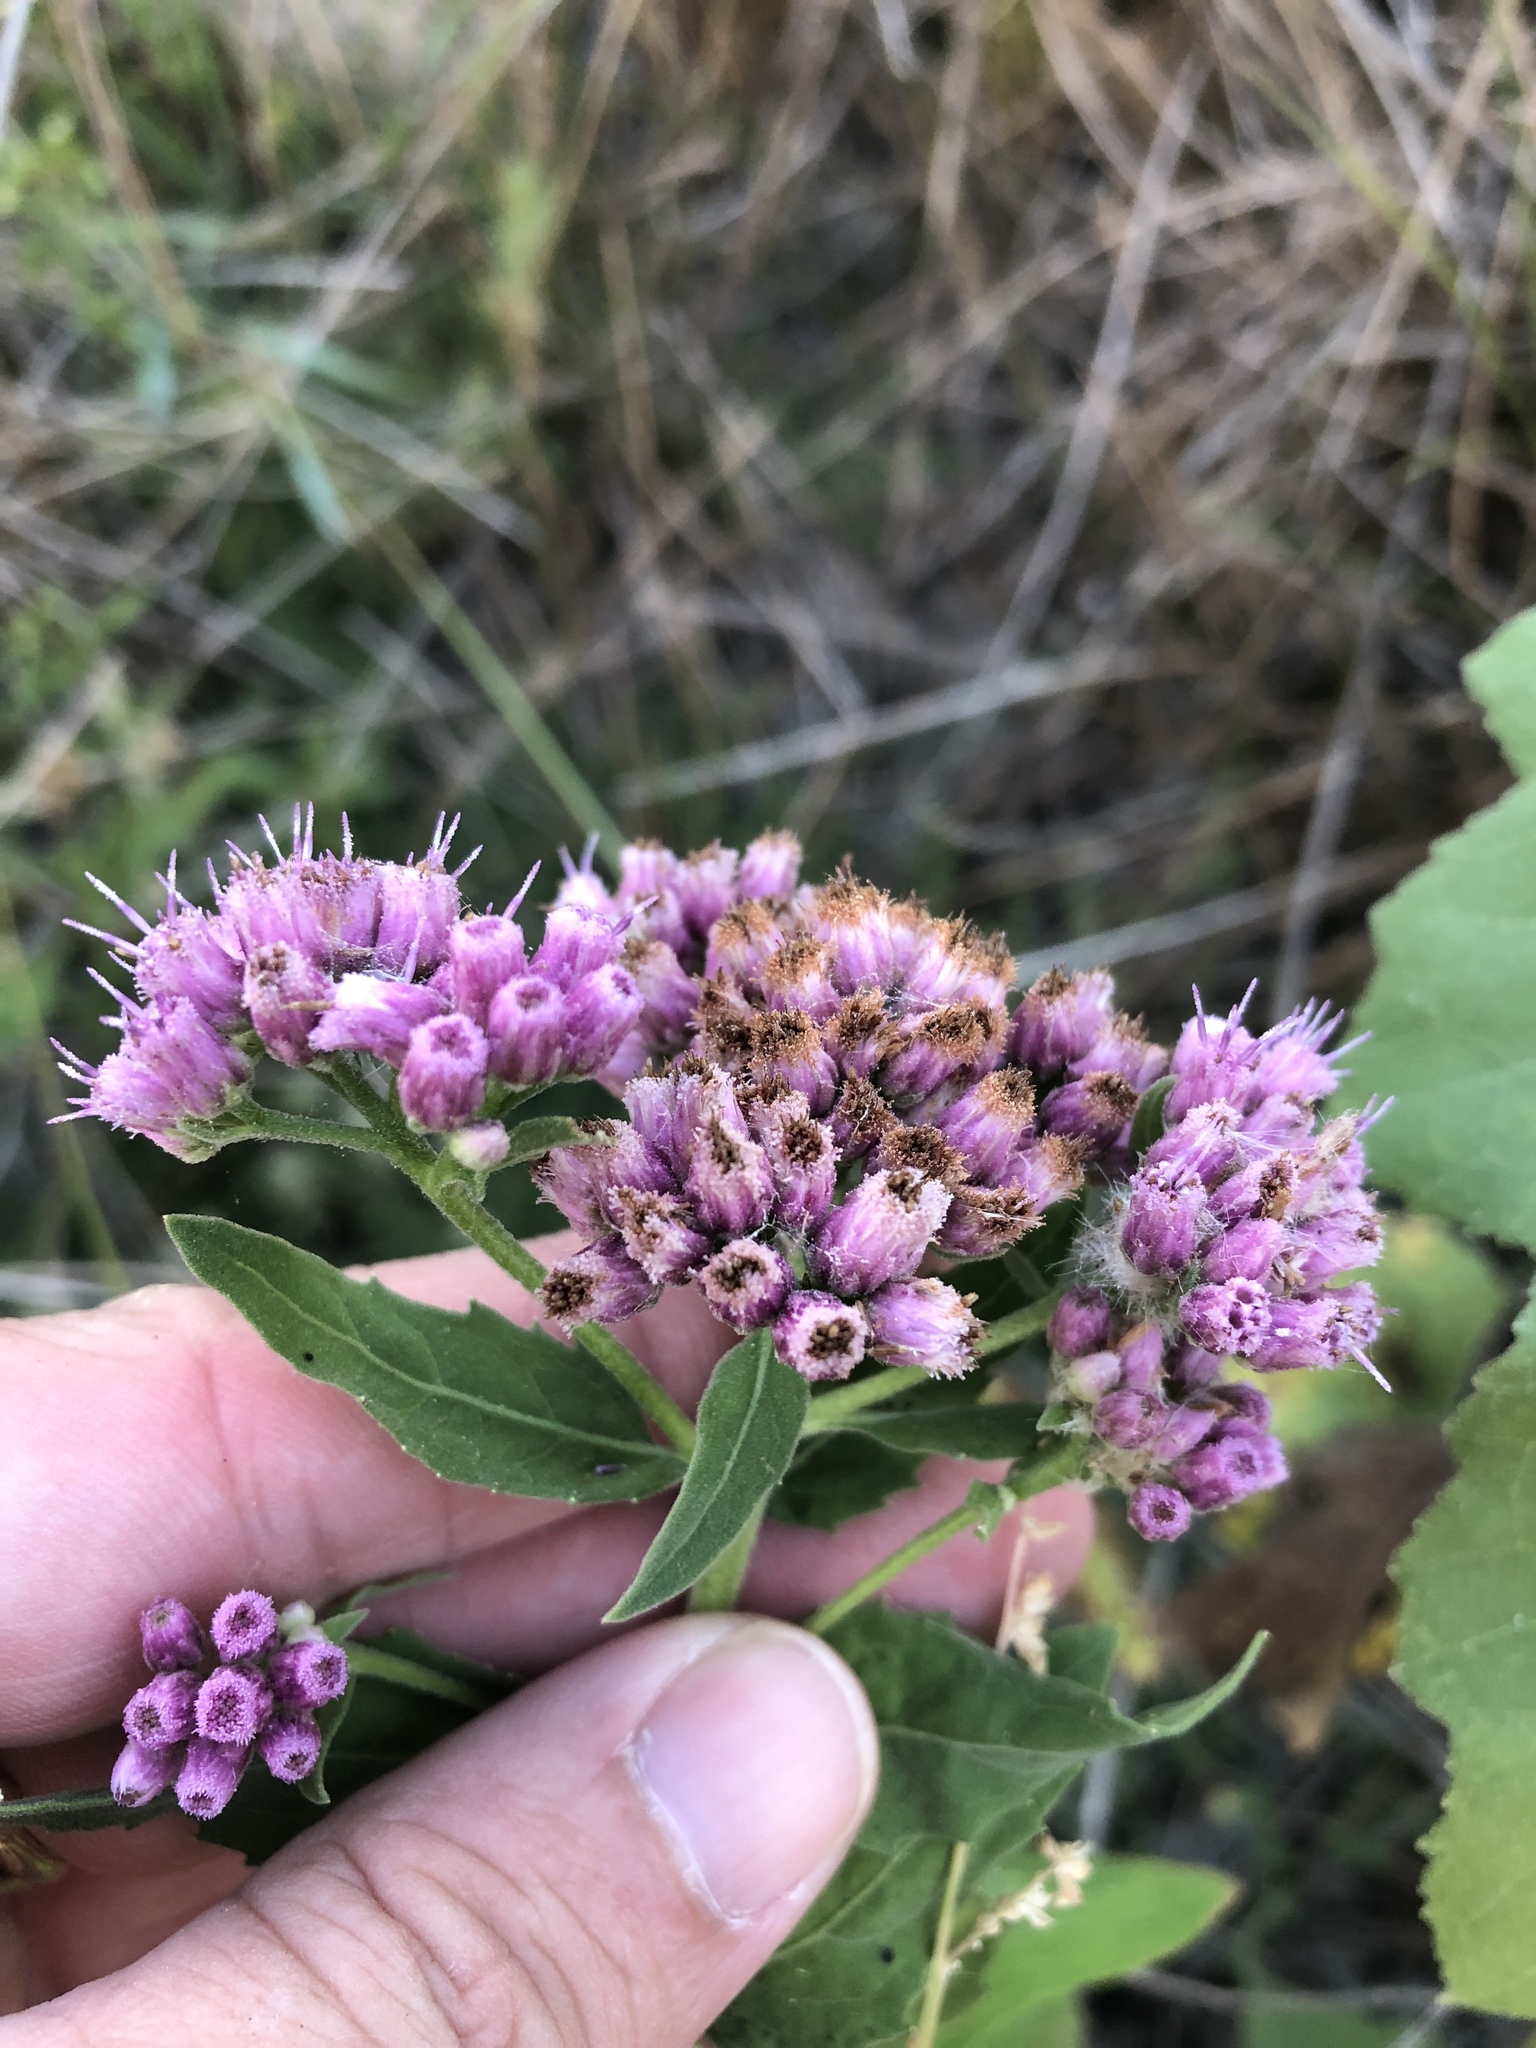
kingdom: Plantae
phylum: Tracheophyta
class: Magnoliopsida
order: Asterales
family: Asteraceae
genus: Pluchea
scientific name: Pluchea odorata
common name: Saltmarsh fleabane
